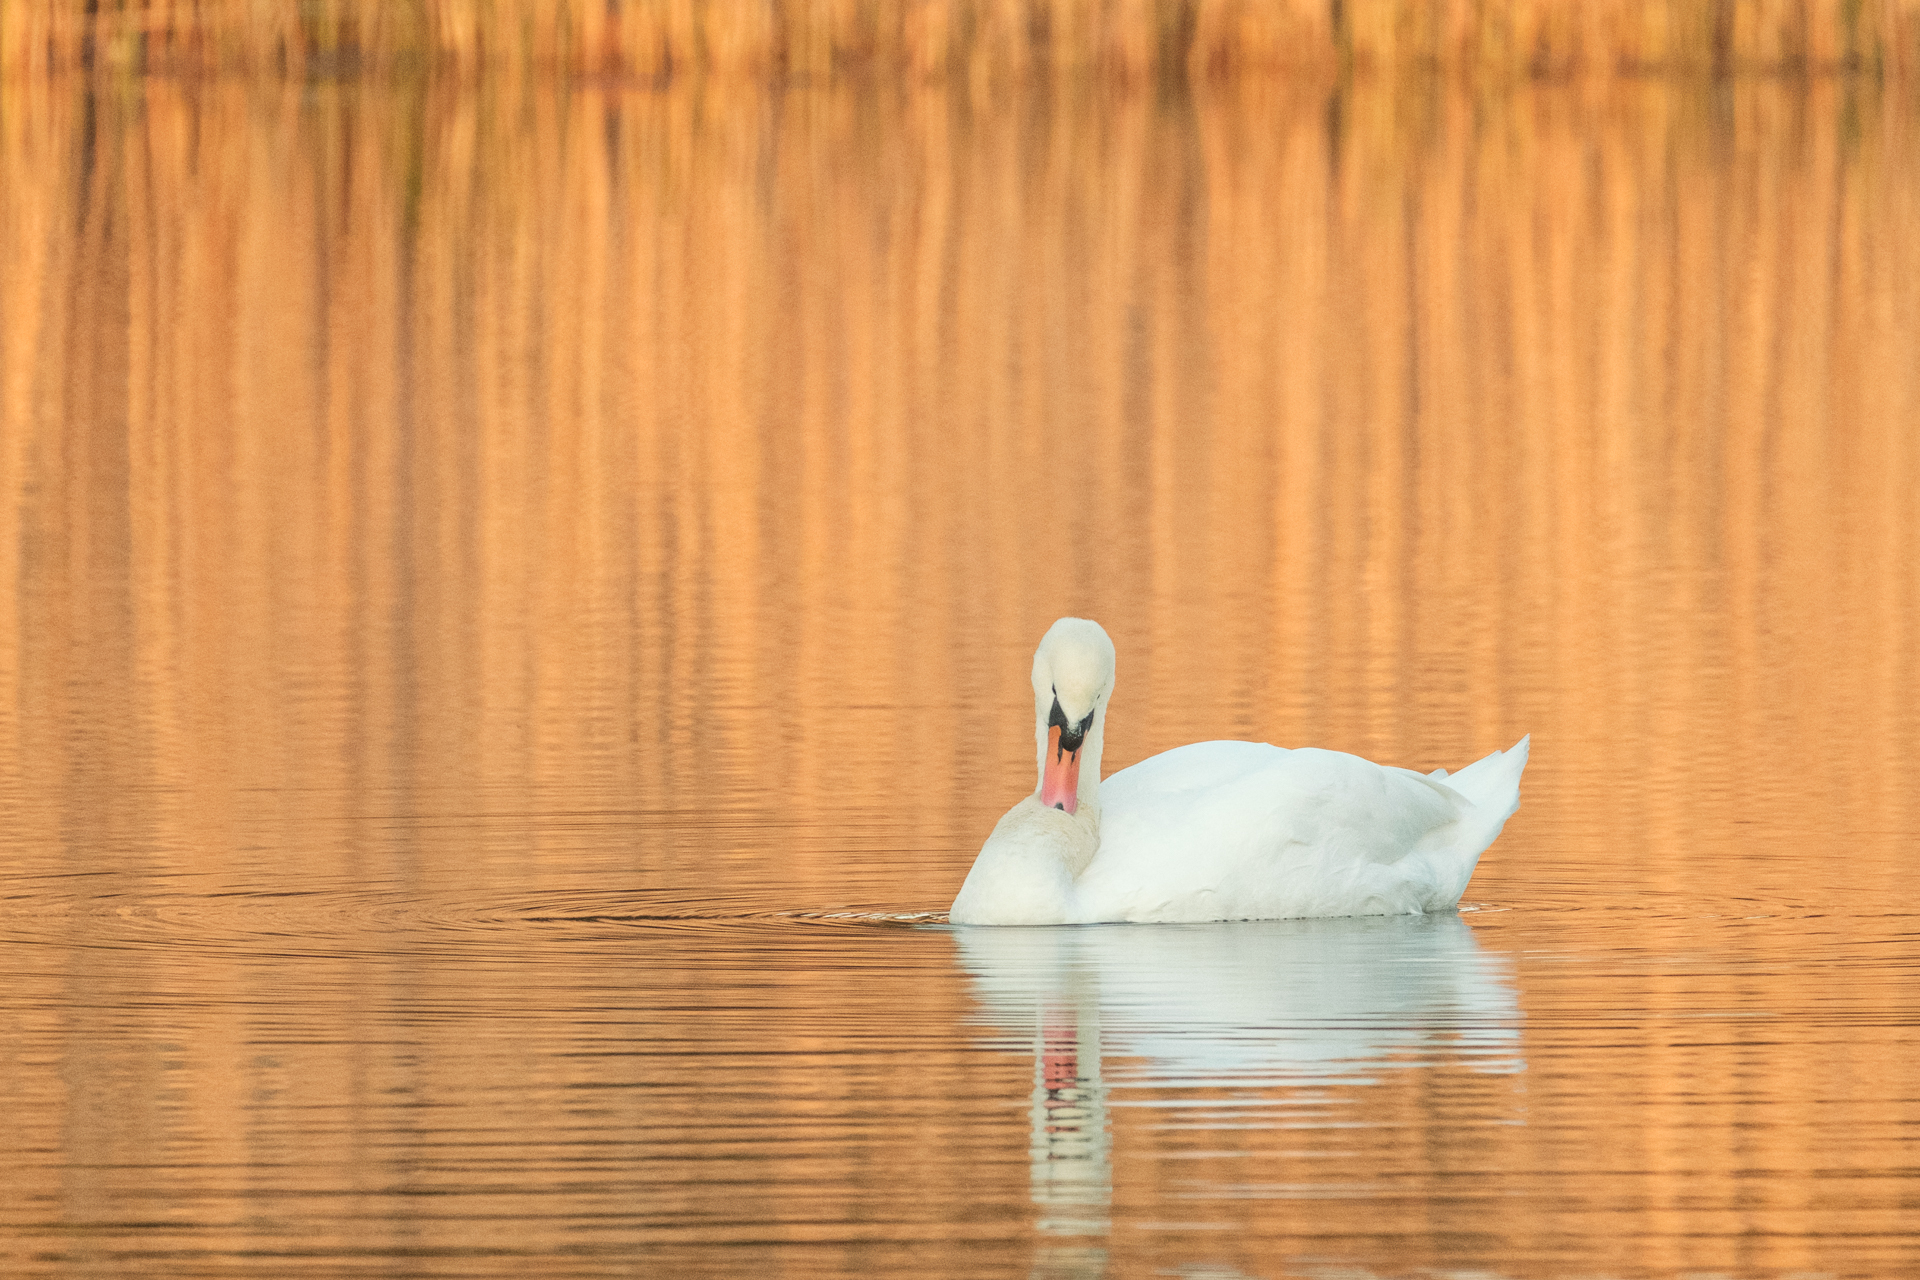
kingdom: Animalia
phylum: Chordata
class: Aves
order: Anseriformes
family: Anatidae
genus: Cygnus
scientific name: Cygnus olor
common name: Mute swan
